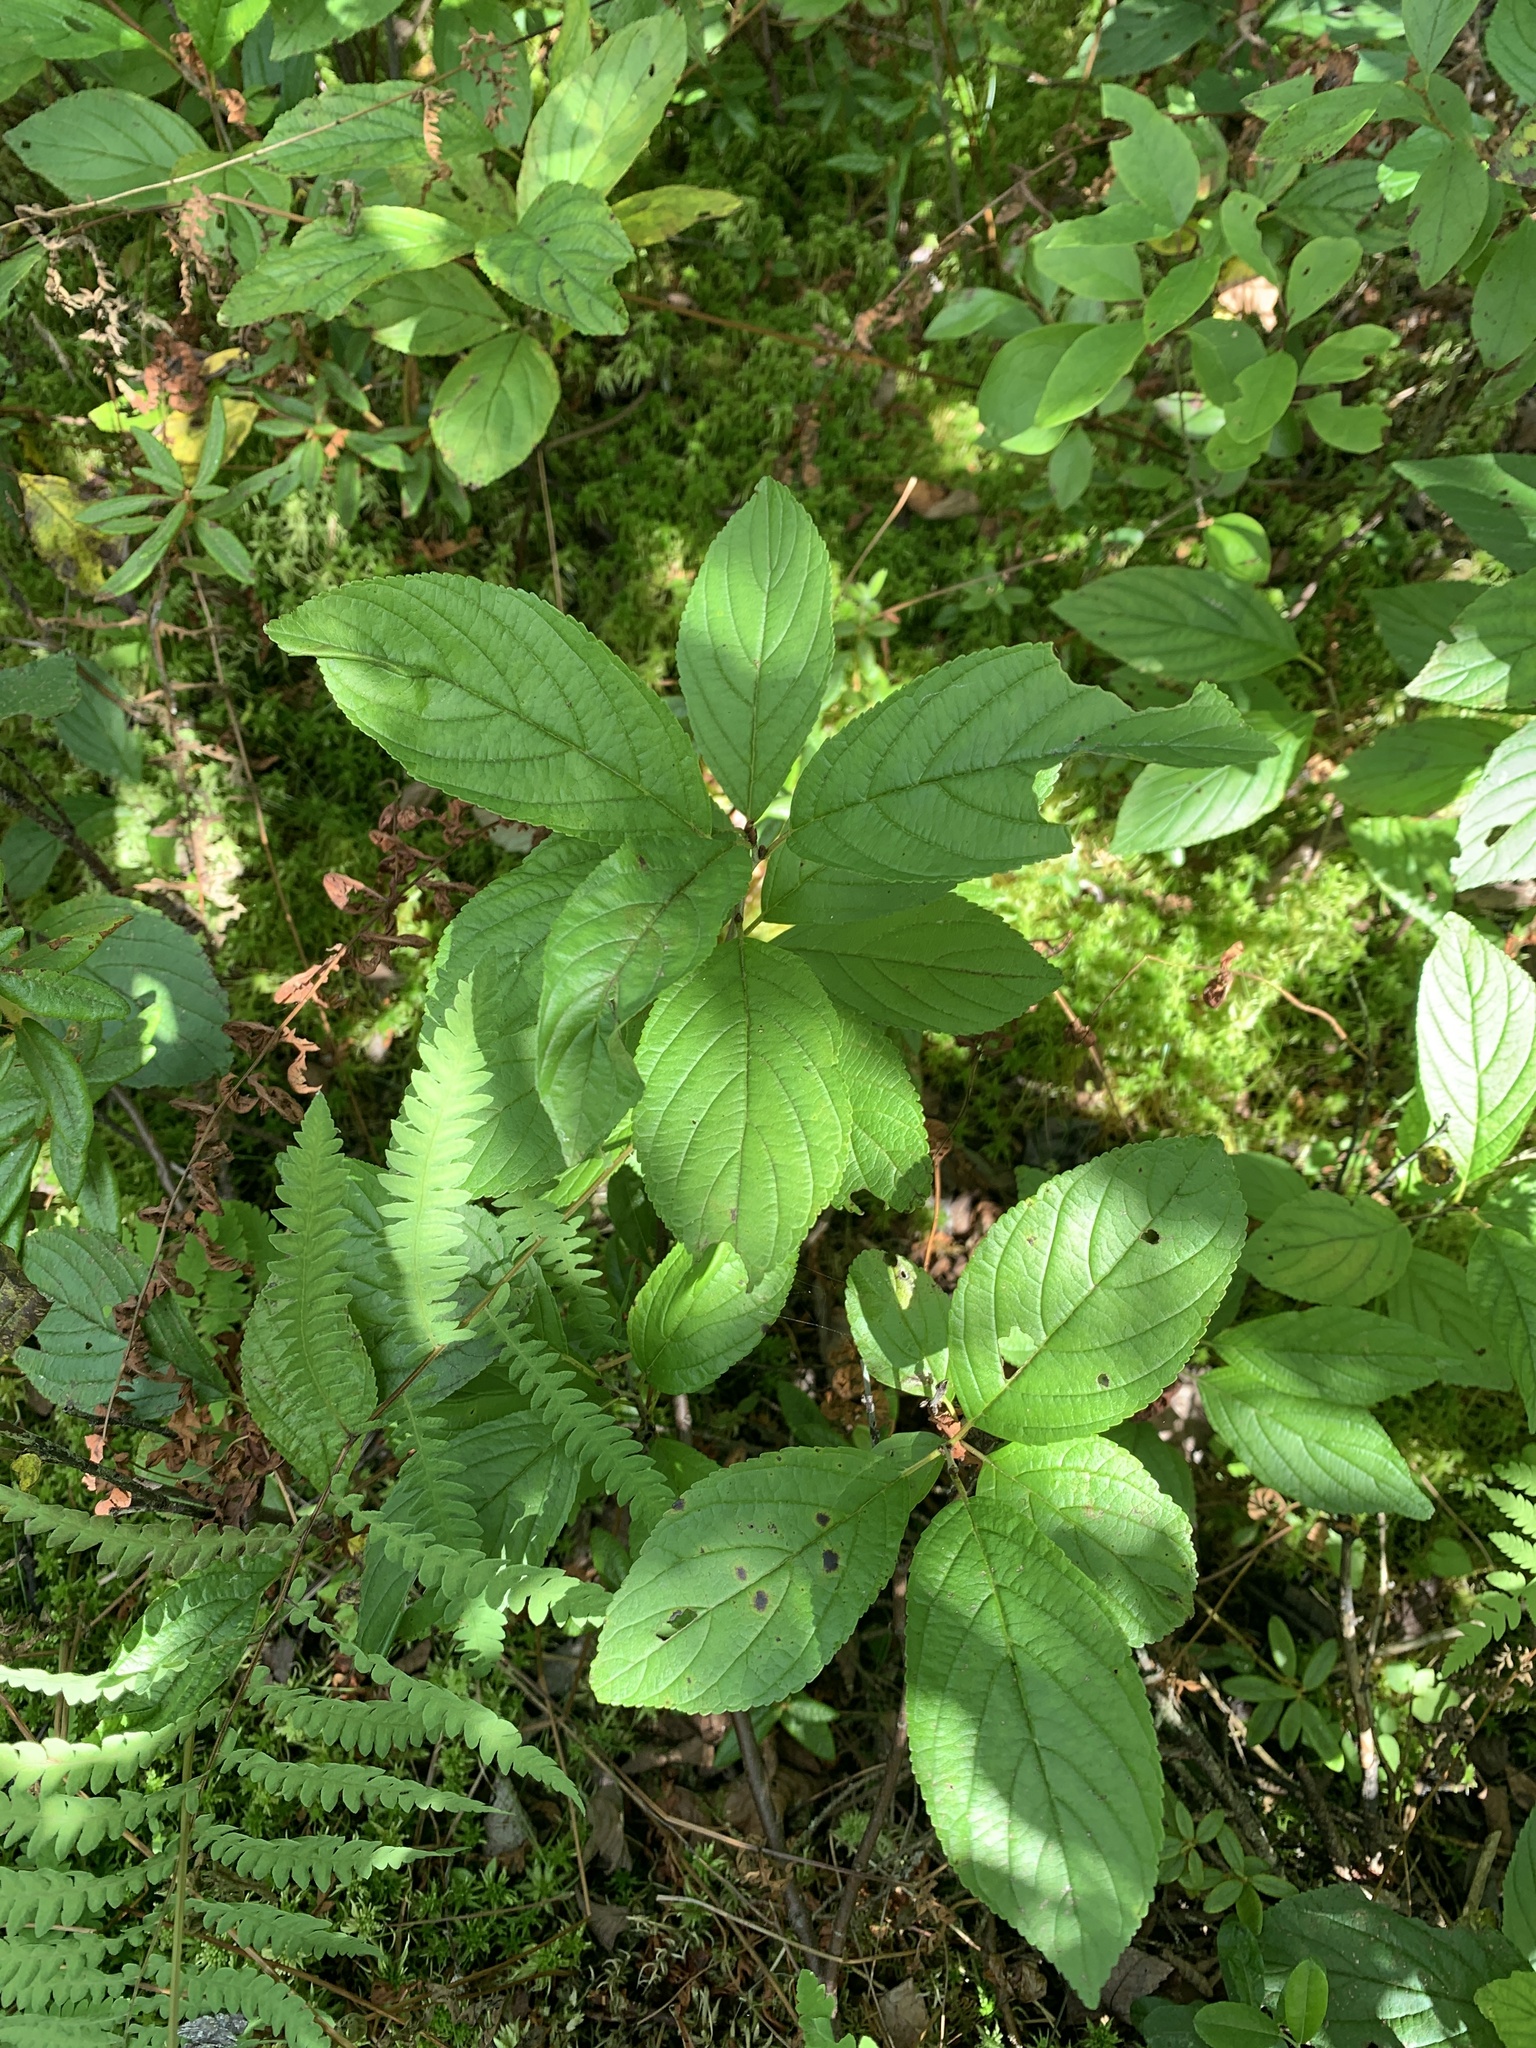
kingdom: Plantae
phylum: Tracheophyta
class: Magnoliopsida
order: Rosales
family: Rhamnaceae
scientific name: Rhamnaceae
